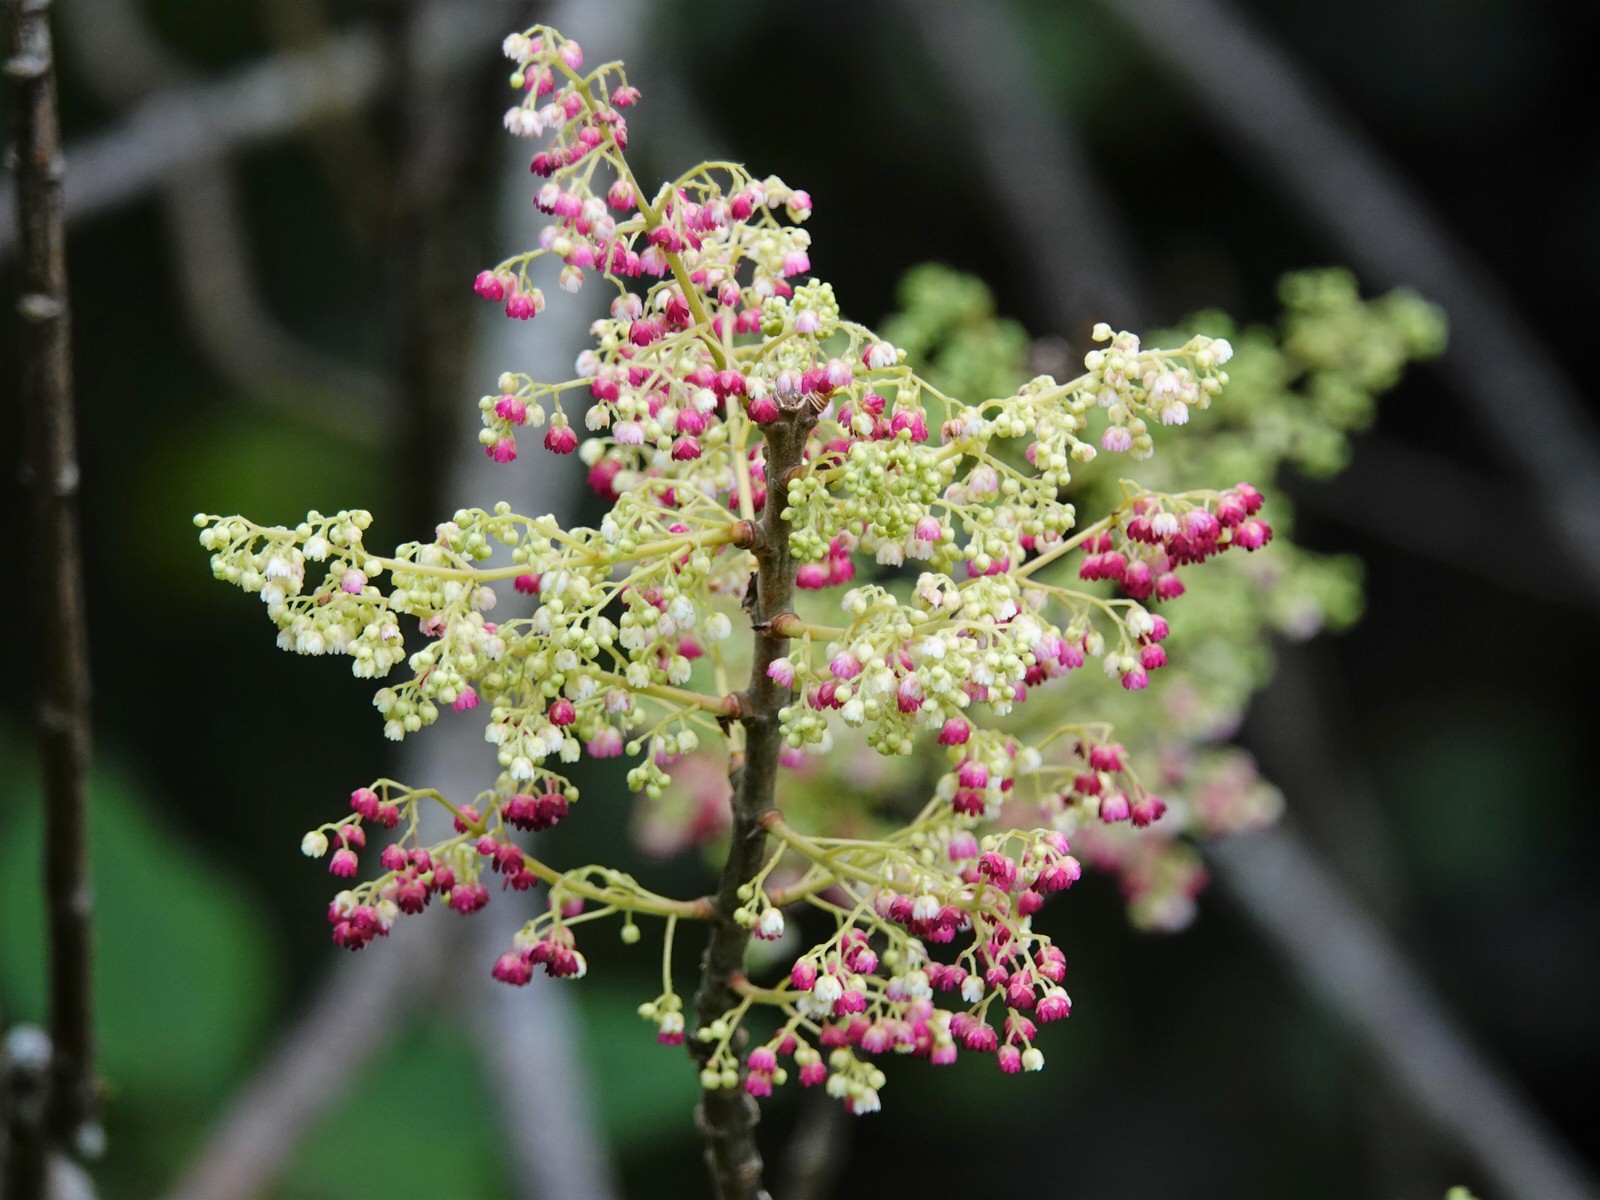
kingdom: Plantae
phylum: Tracheophyta
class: Magnoliopsida
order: Oxalidales
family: Elaeocarpaceae
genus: Aristotelia
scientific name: Aristotelia serrata
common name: New zealand wineberry
